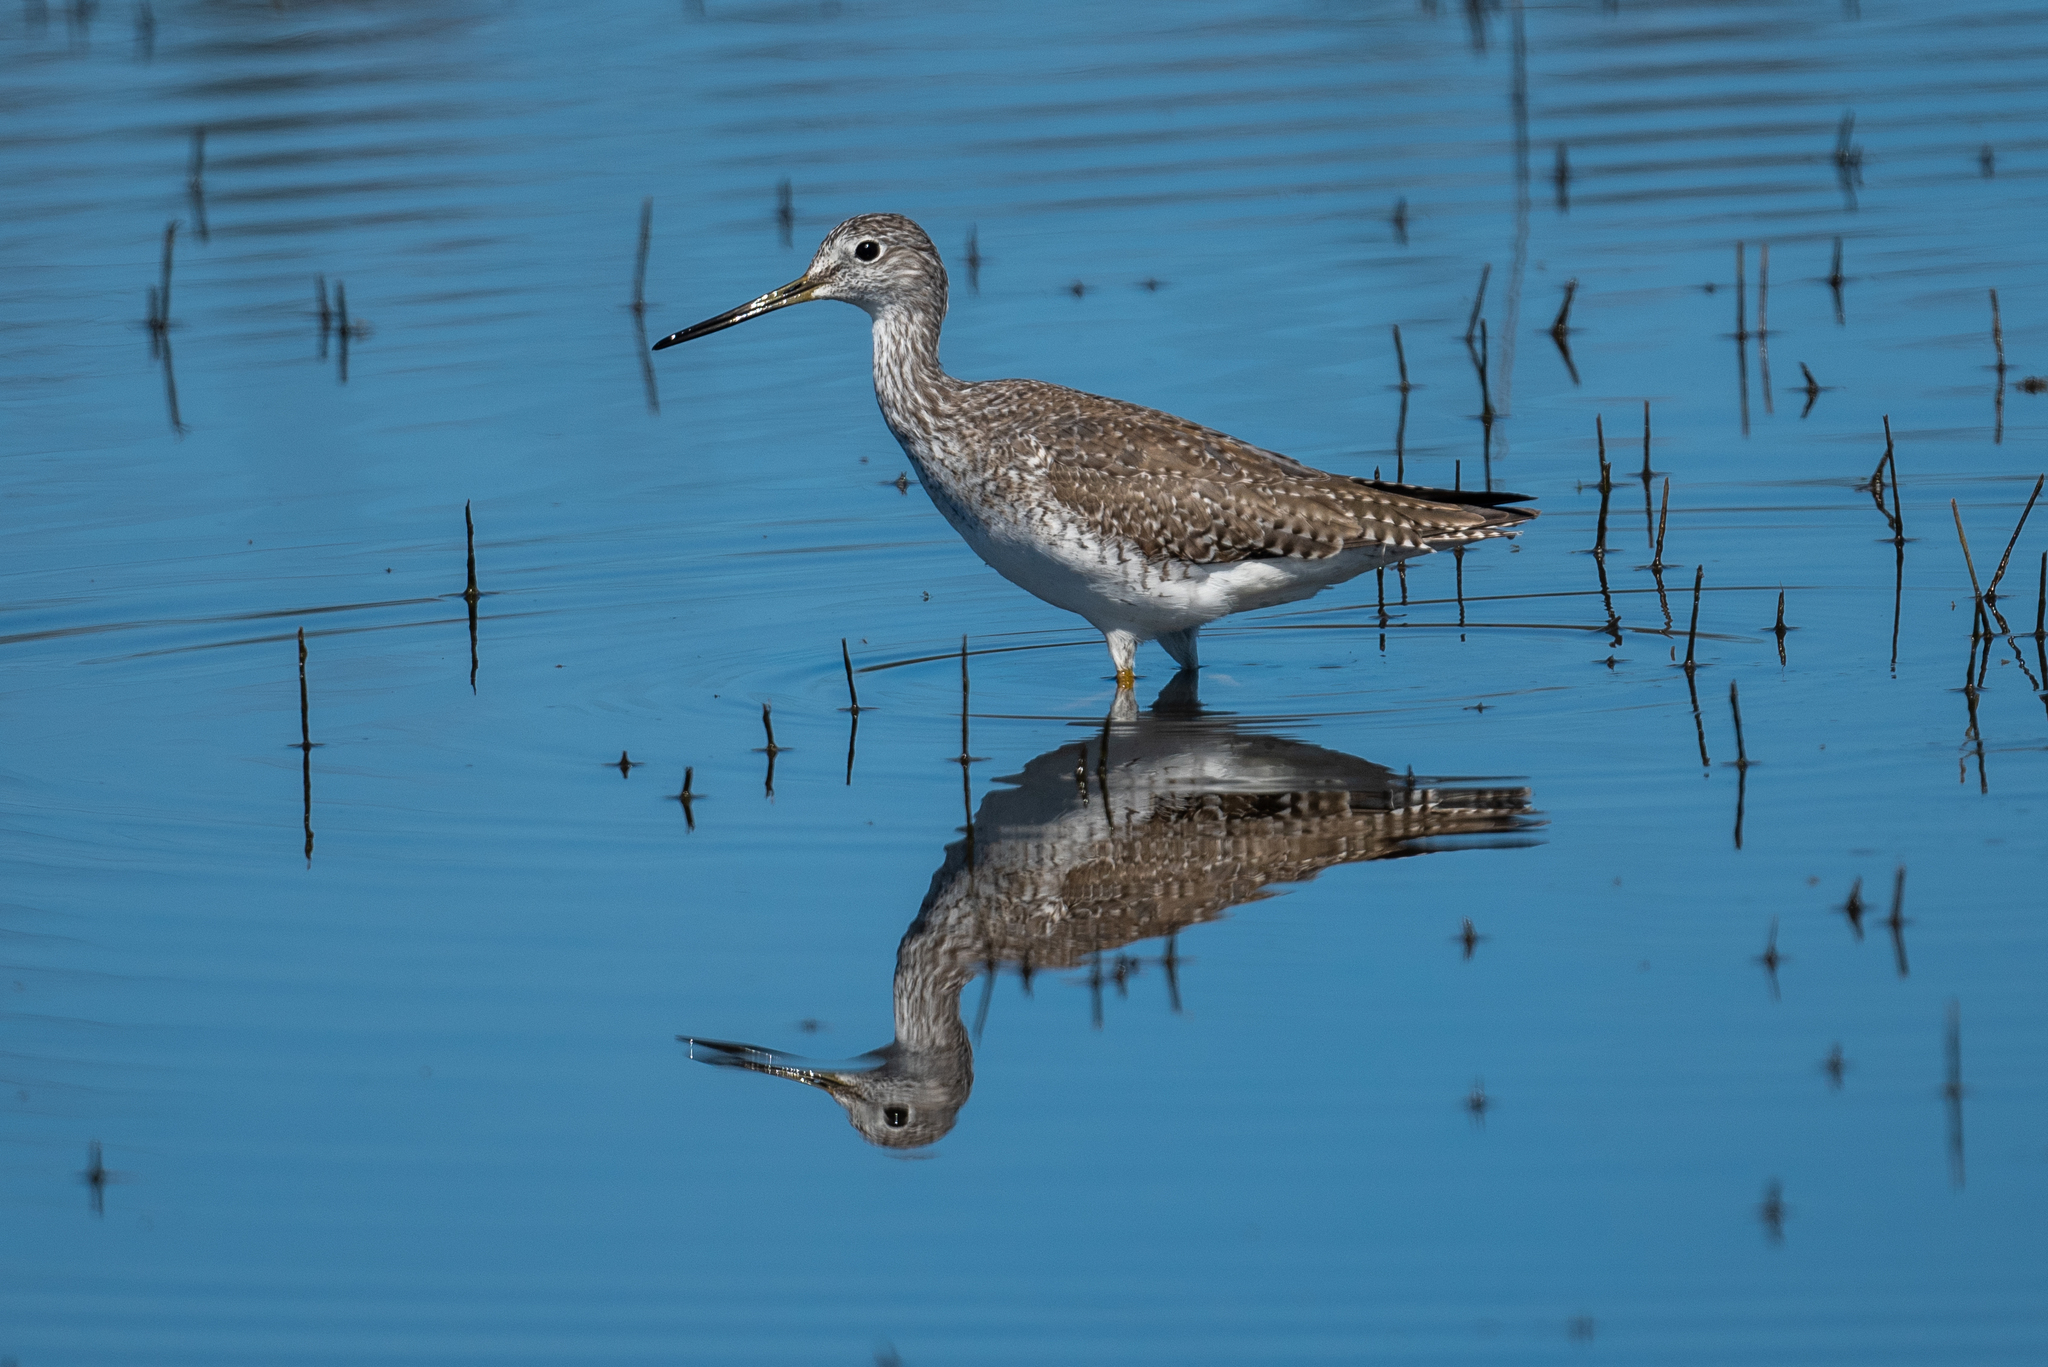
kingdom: Animalia
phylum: Chordata
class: Aves
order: Charadriiformes
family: Scolopacidae
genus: Tringa
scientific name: Tringa melanoleuca
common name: Greater yellowlegs
